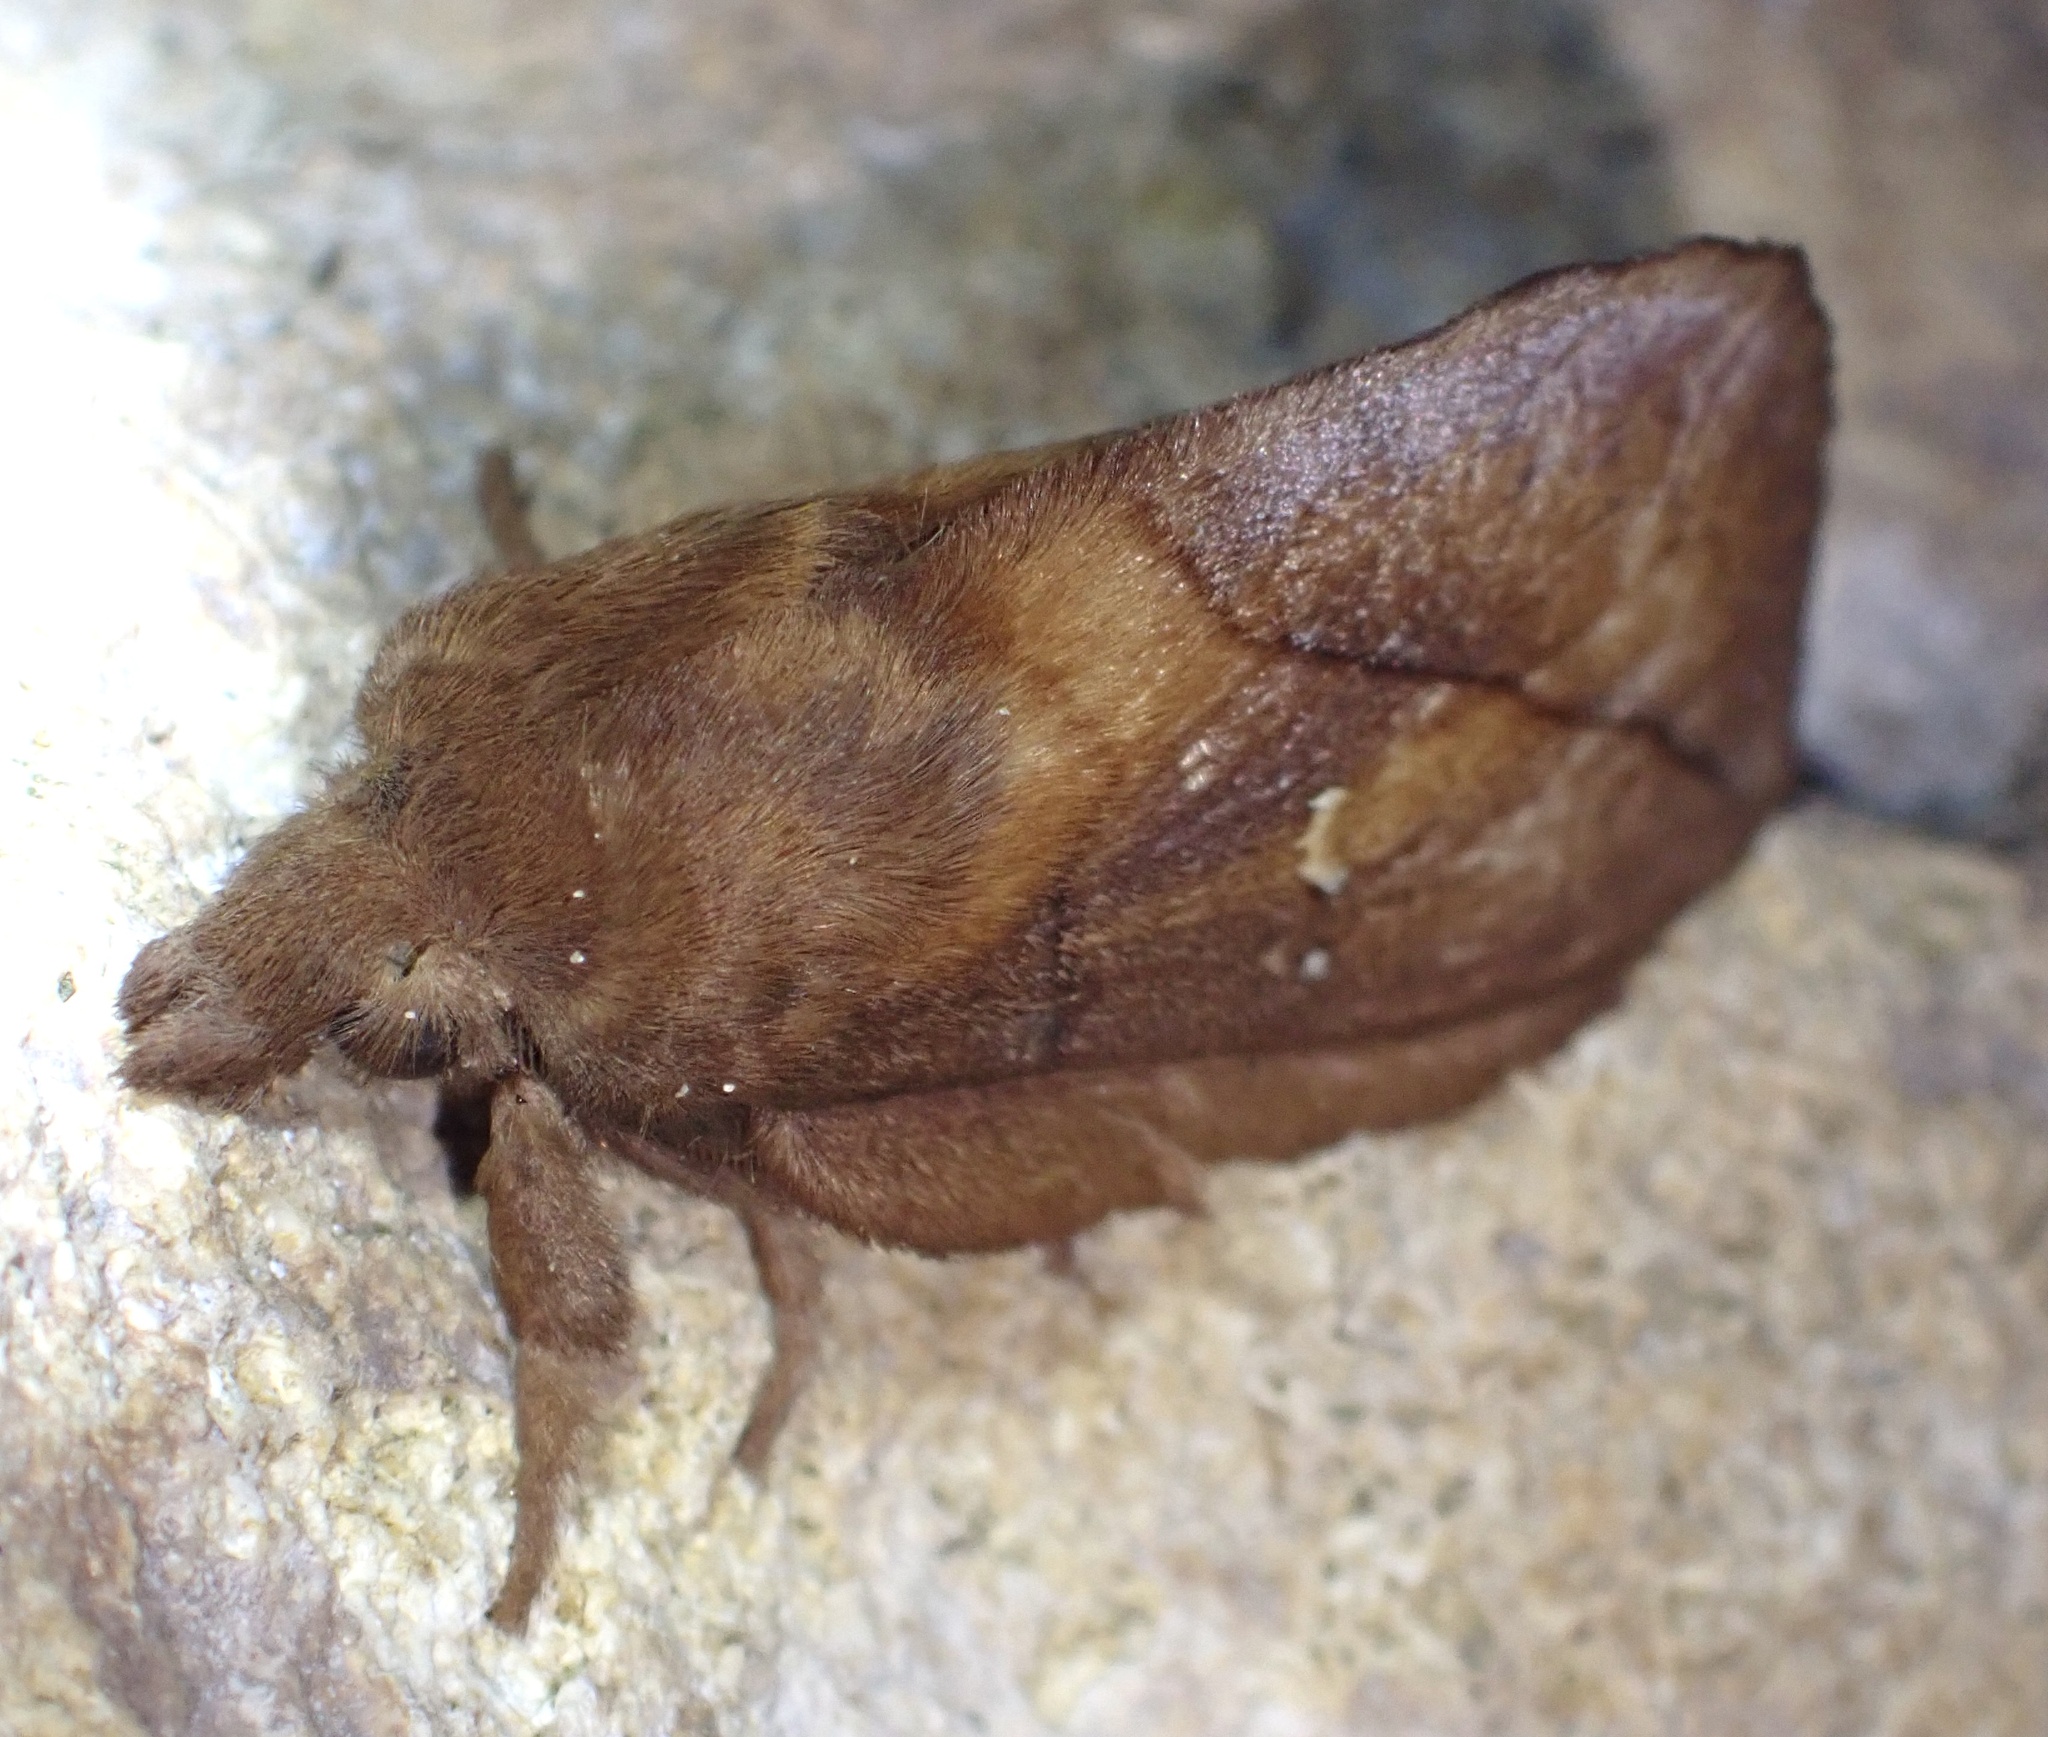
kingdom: Animalia
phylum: Arthropoda
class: Insecta
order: Lepidoptera
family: Lasiocampidae
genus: Euthrix
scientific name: Euthrix potatoria
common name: Drinker
